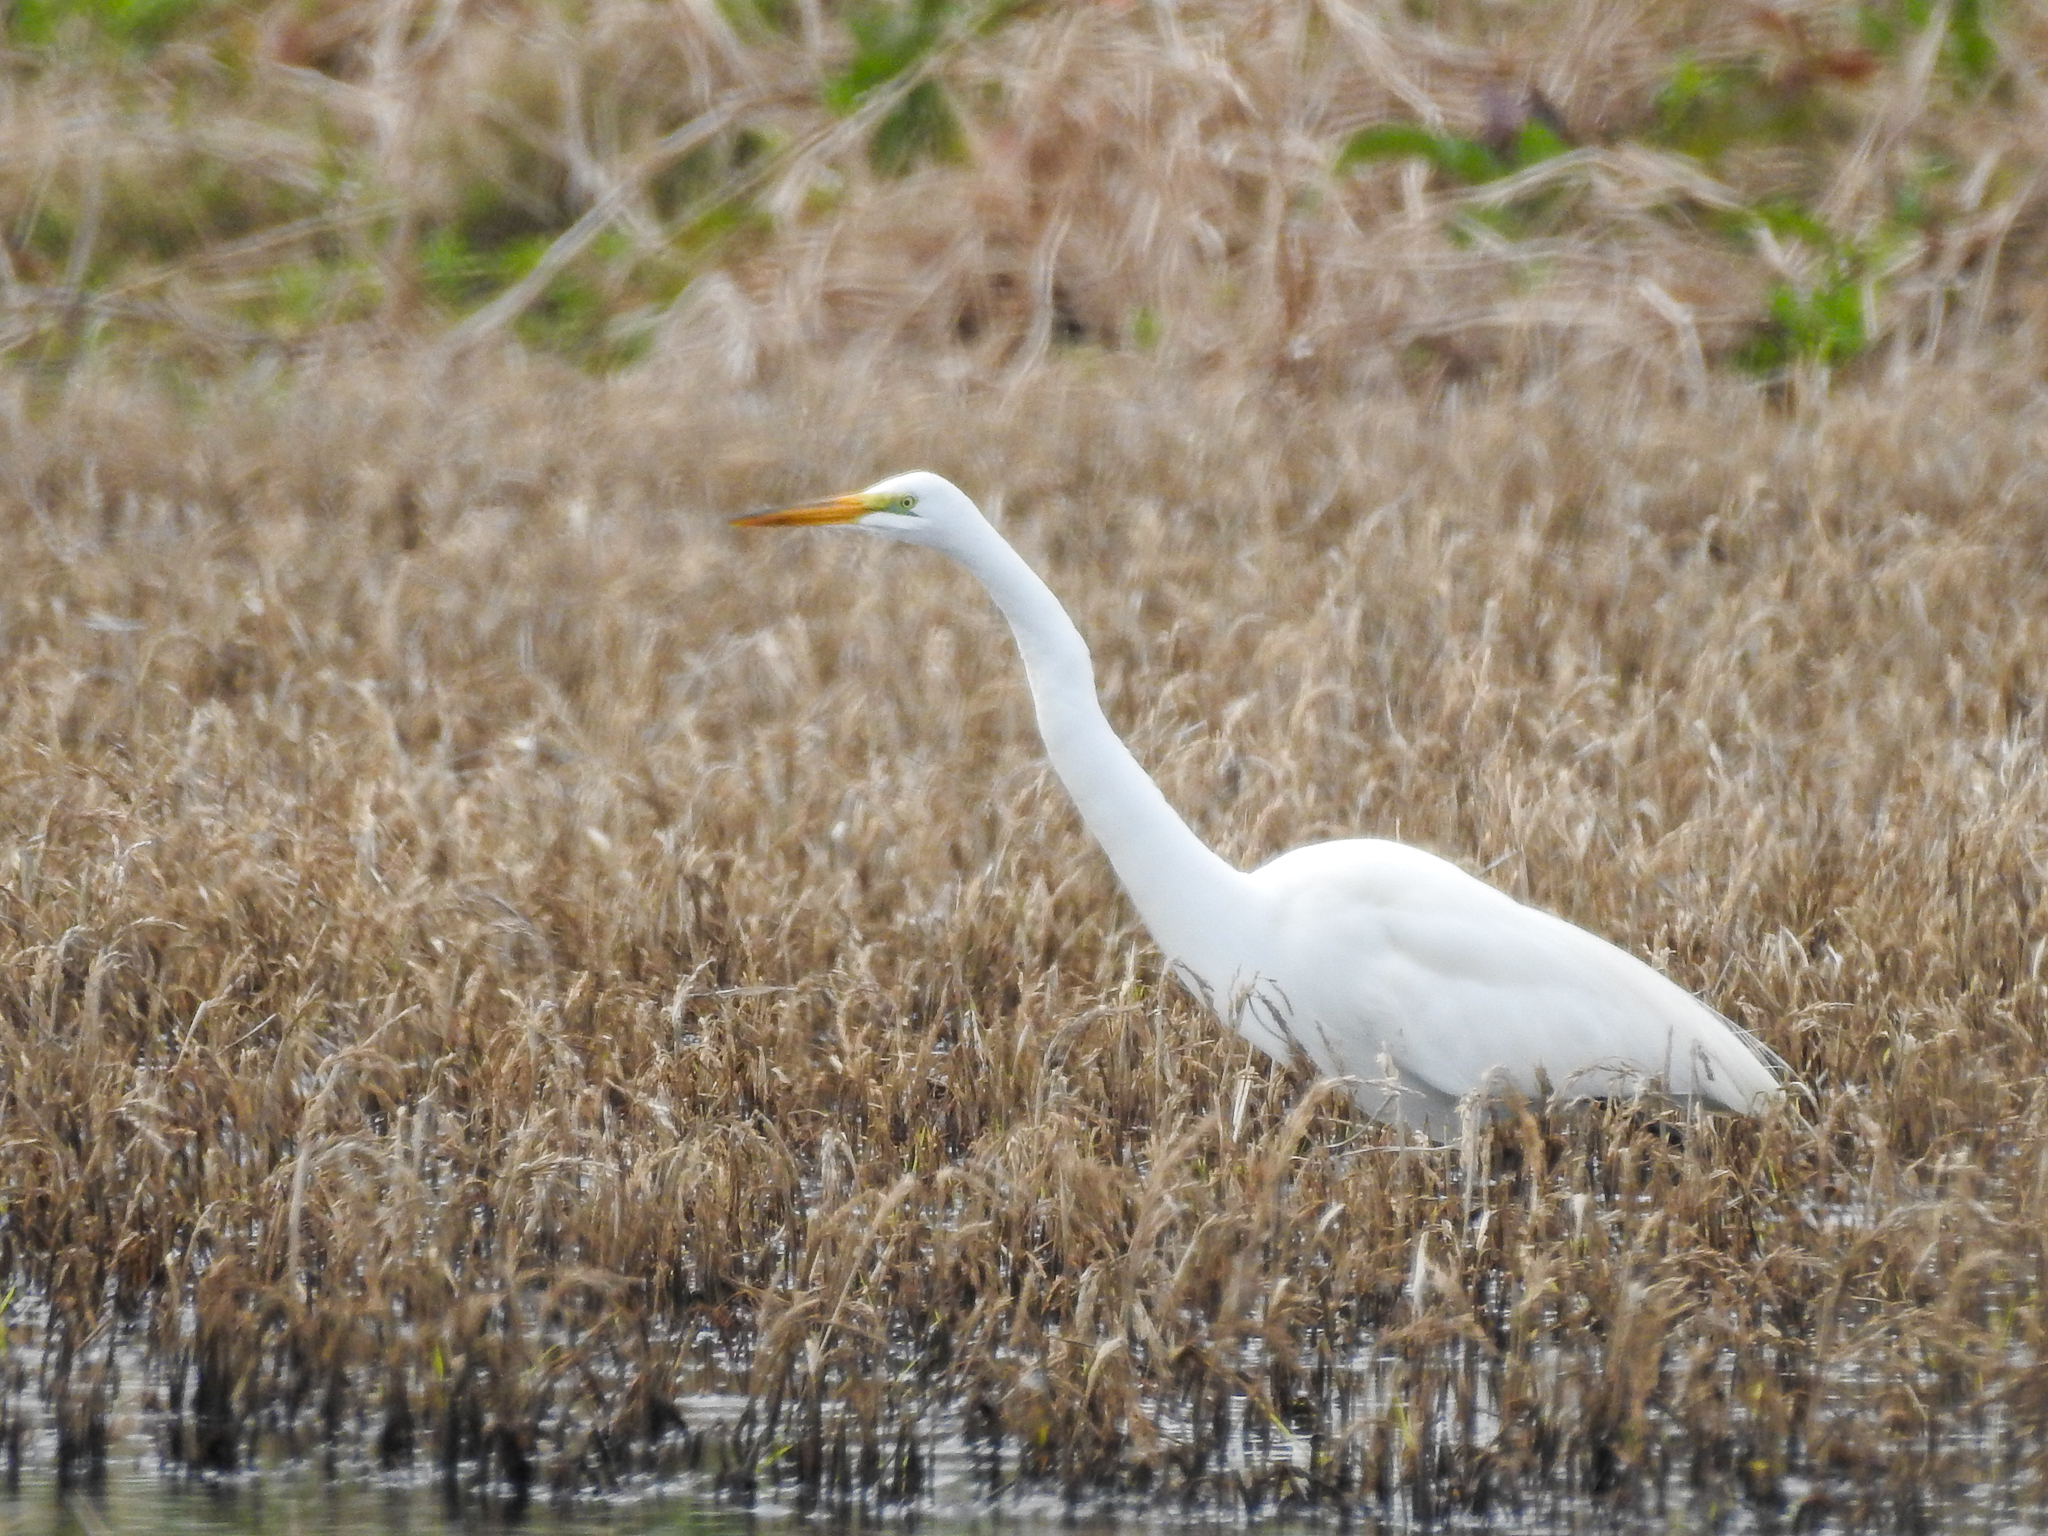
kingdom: Animalia
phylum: Chordata
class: Aves
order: Pelecaniformes
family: Ardeidae
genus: Ardea
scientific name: Ardea alba
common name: Great egret
